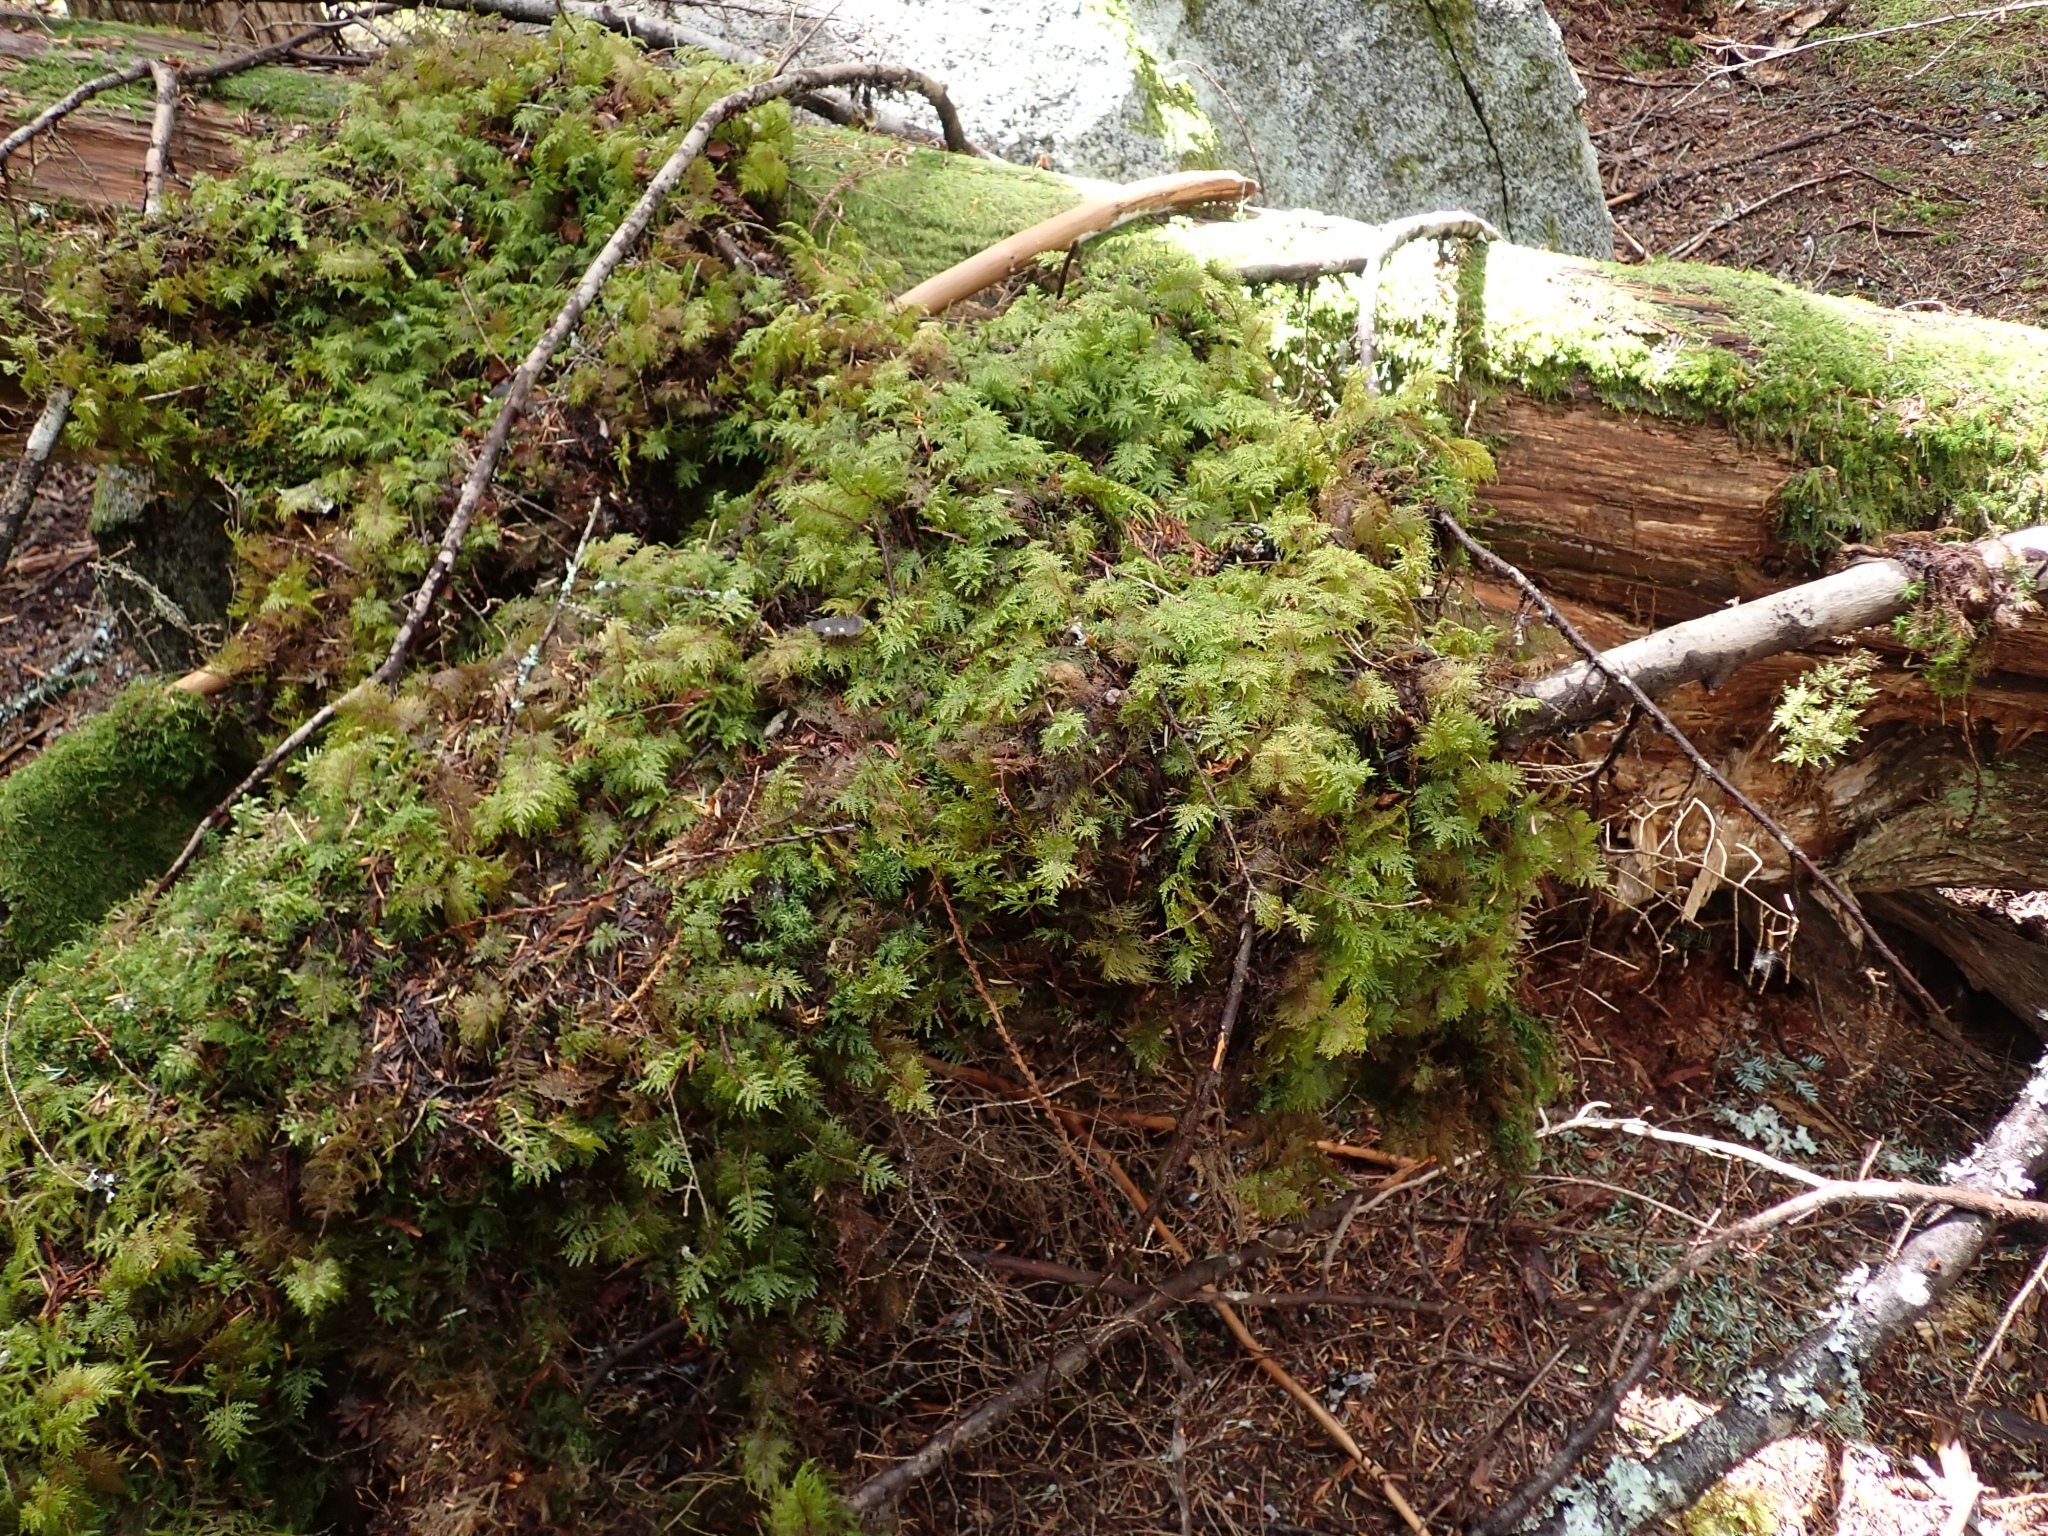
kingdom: Plantae
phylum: Bryophyta
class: Bryopsida
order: Hypnales
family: Hylocomiaceae
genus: Hylocomium
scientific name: Hylocomium splendens
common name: Stairstep moss
